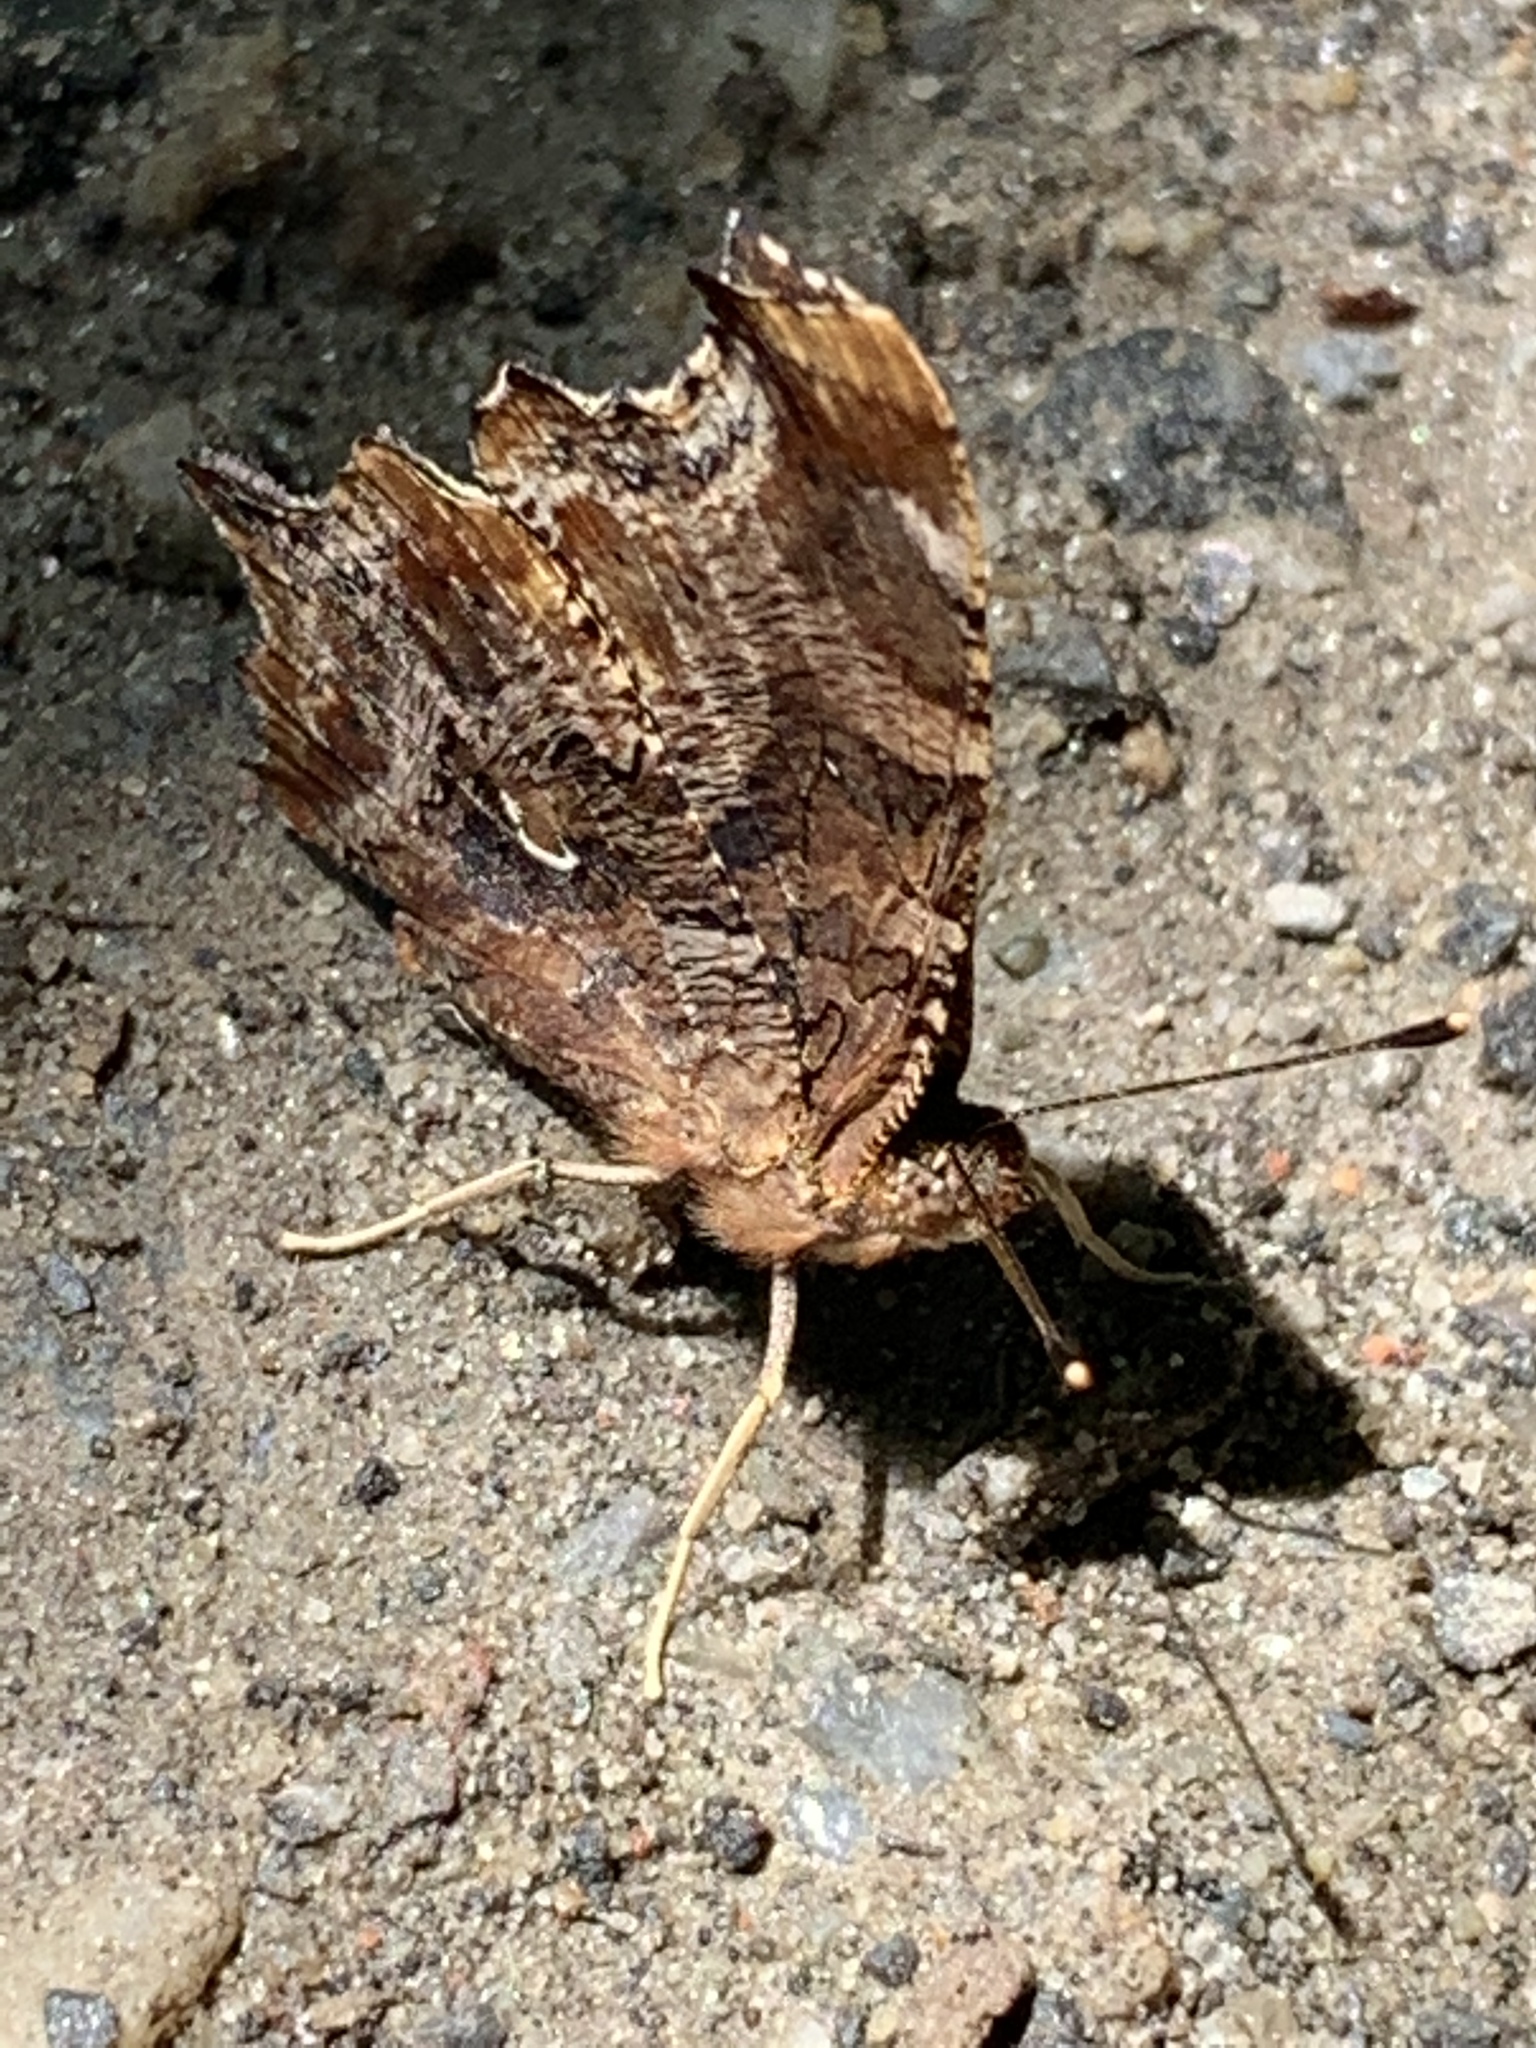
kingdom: Animalia
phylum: Arthropoda
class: Insecta
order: Lepidoptera
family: Nymphalidae
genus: Polygonia
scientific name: Polygonia interrogationis
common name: Question mark
